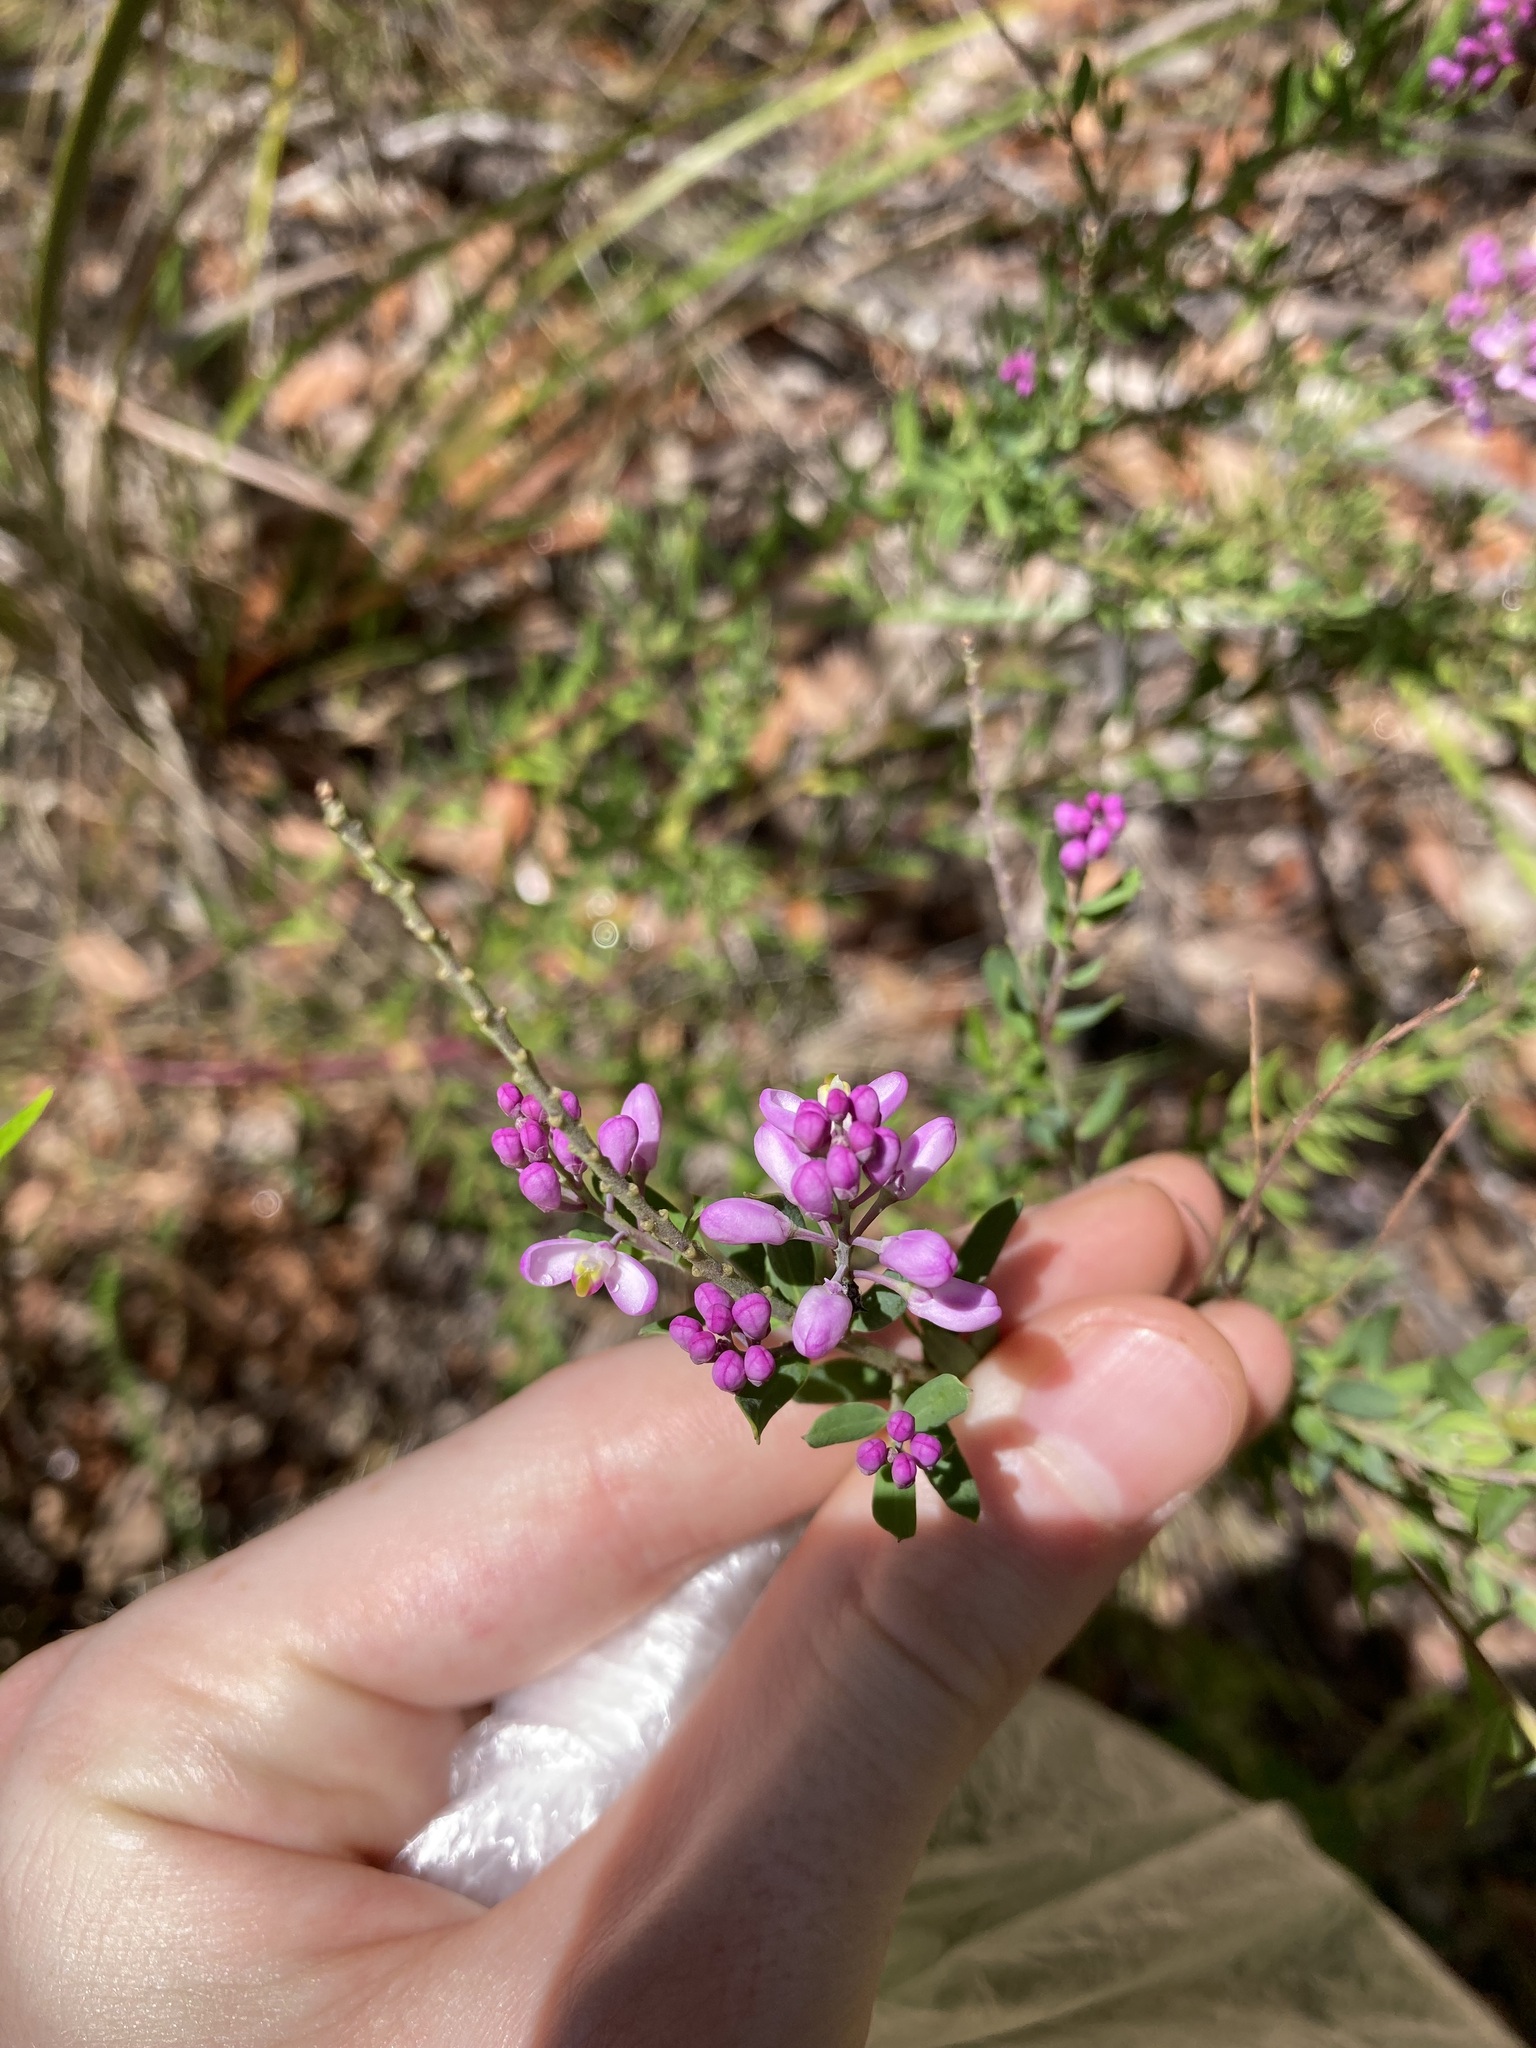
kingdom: Plantae
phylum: Tracheophyta
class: Magnoliopsida
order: Fabales
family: Polygalaceae
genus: Comesperma
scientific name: Comesperma ericinum
